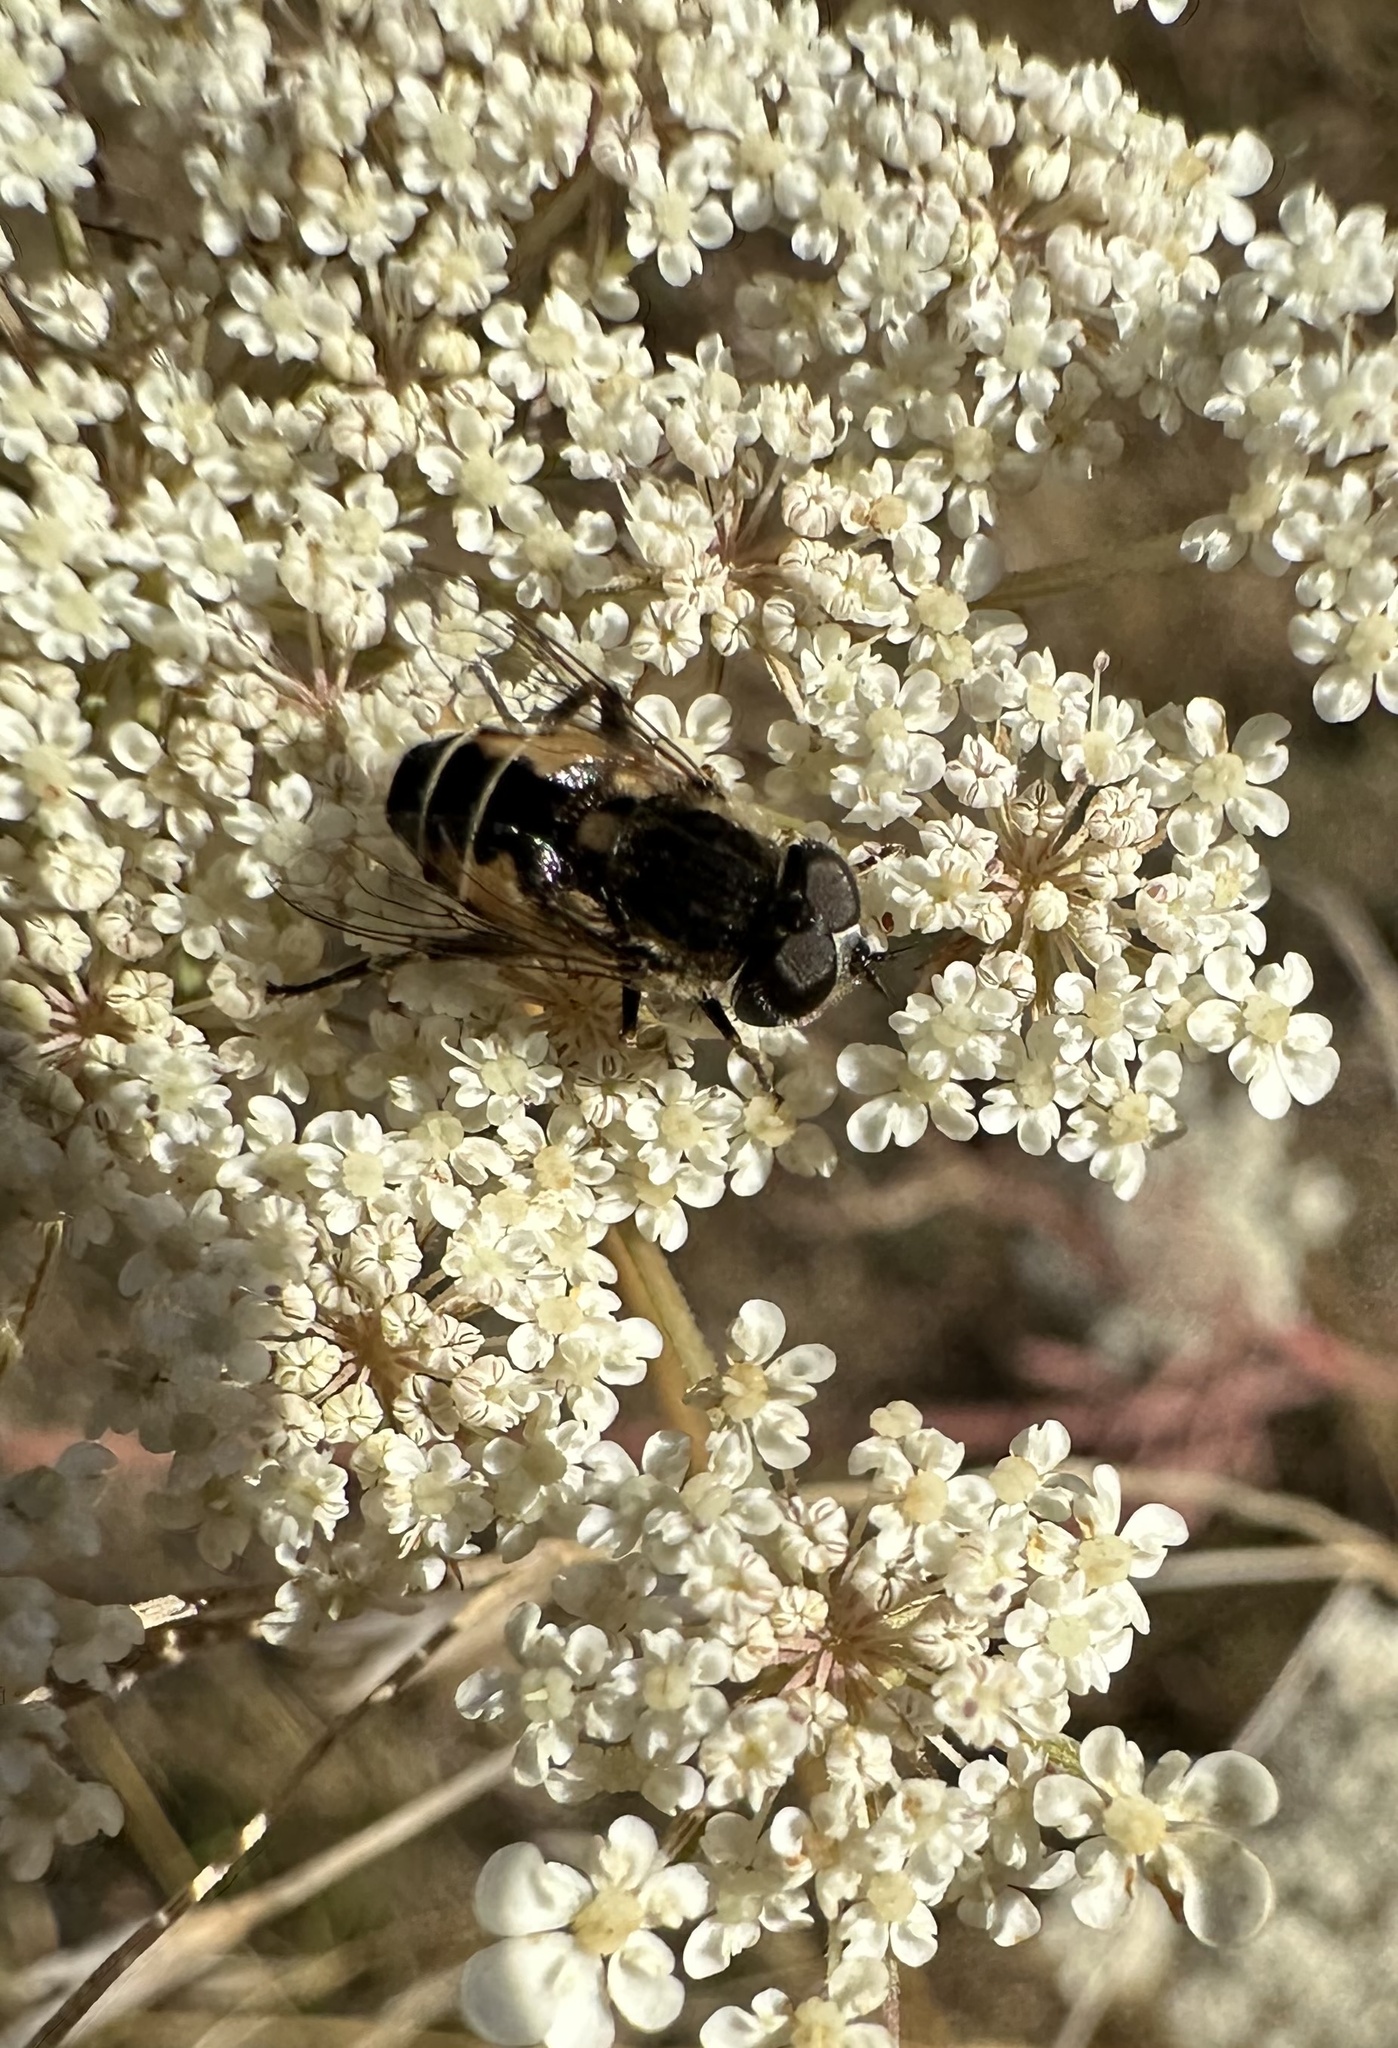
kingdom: Animalia
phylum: Arthropoda
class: Insecta
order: Diptera
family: Syrphidae
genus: Palpada
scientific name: Palpada meigenii
